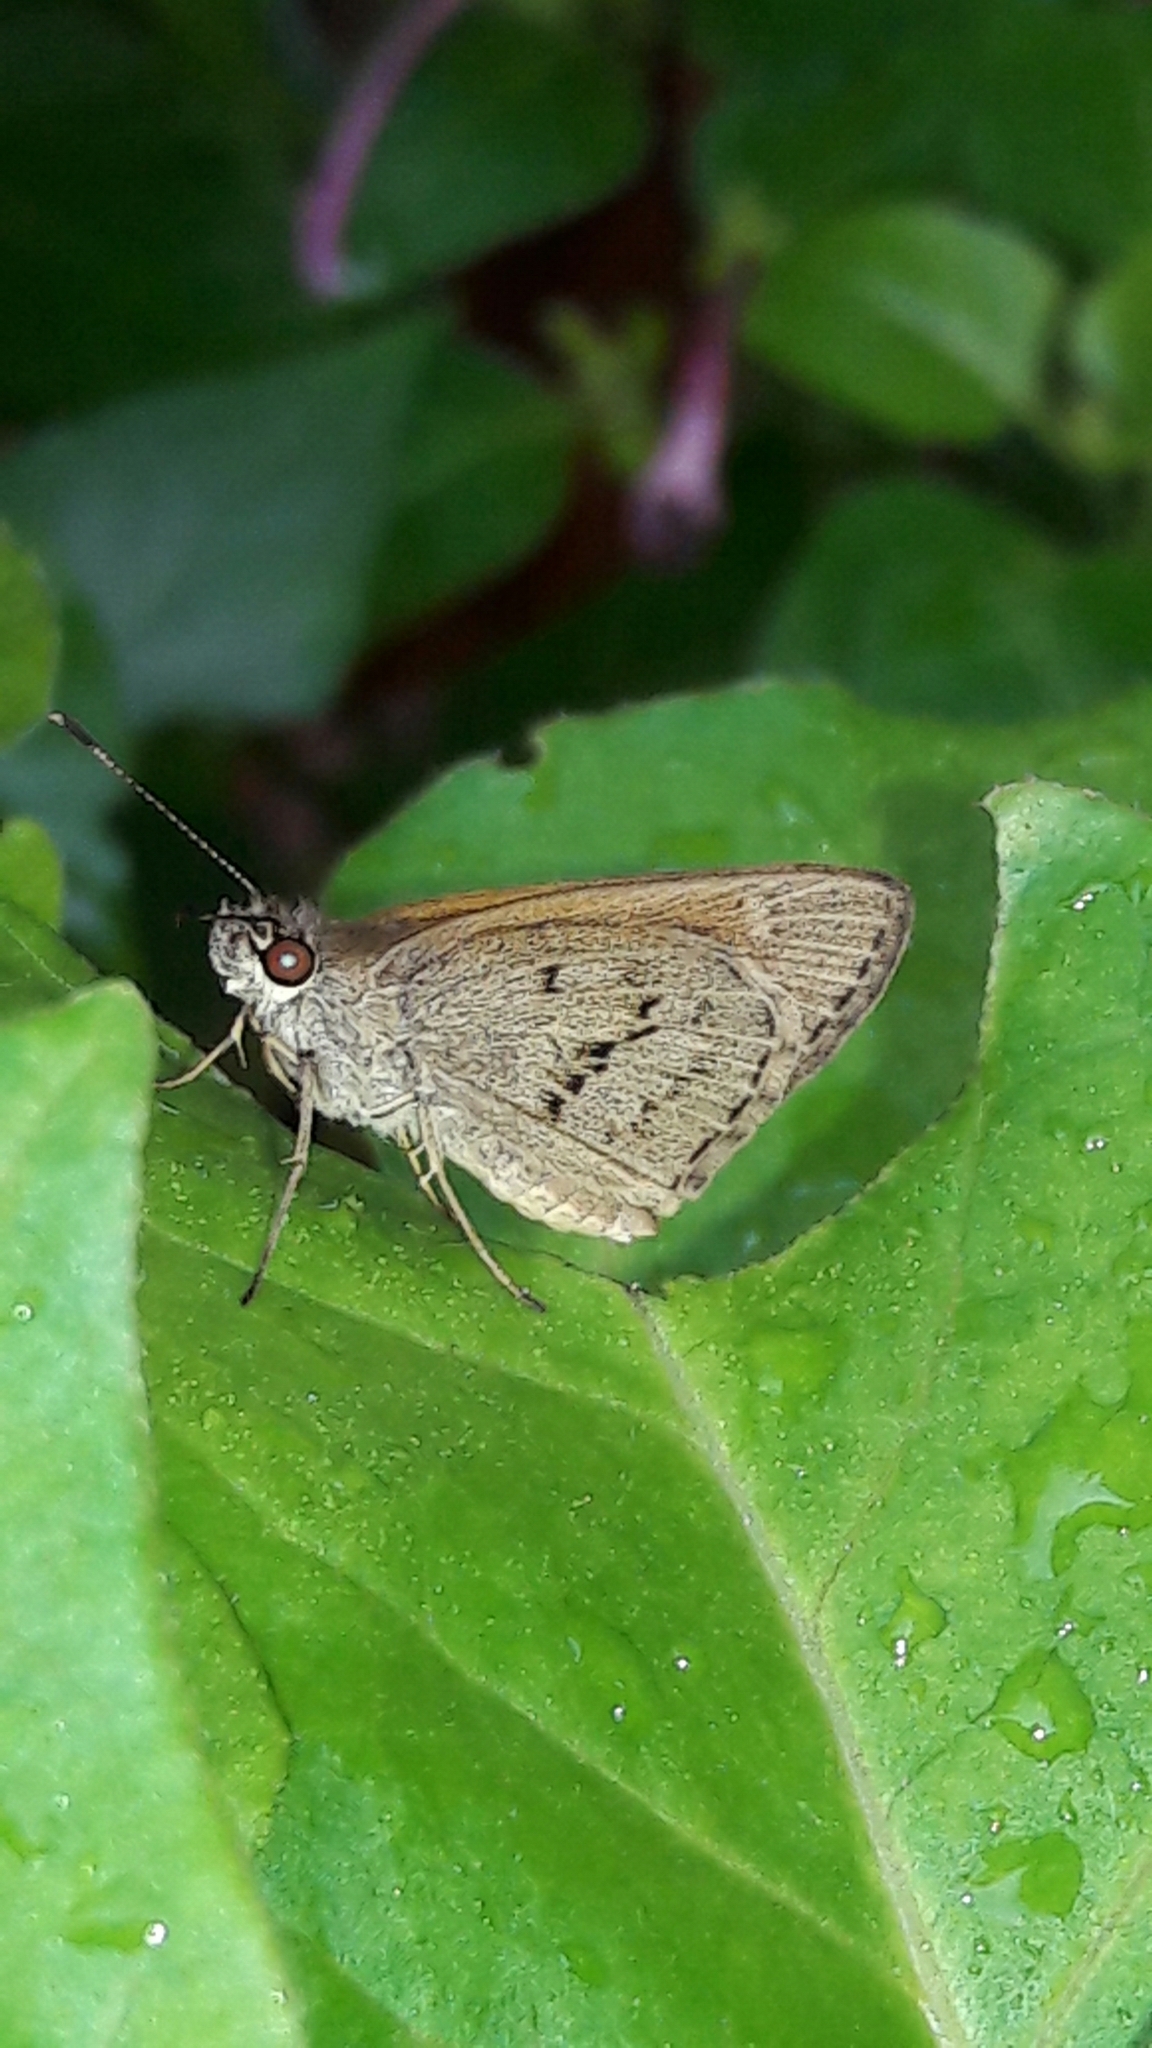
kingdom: Animalia
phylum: Arthropoda
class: Insecta
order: Lepidoptera
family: Hesperiidae
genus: Cymaenes
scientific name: Cymaenes gisca
